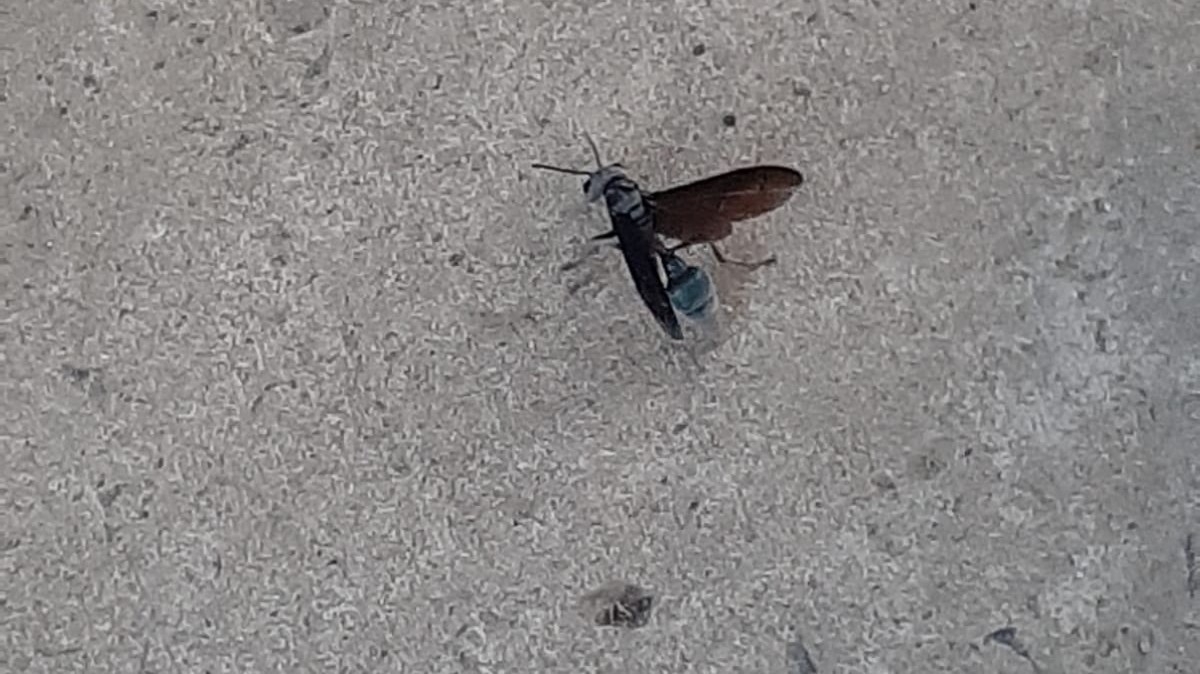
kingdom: Animalia
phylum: Arthropoda
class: Insecta
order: Hymenoptera
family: Vespidae
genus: Synoeca
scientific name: Synoeca septentrionalis
